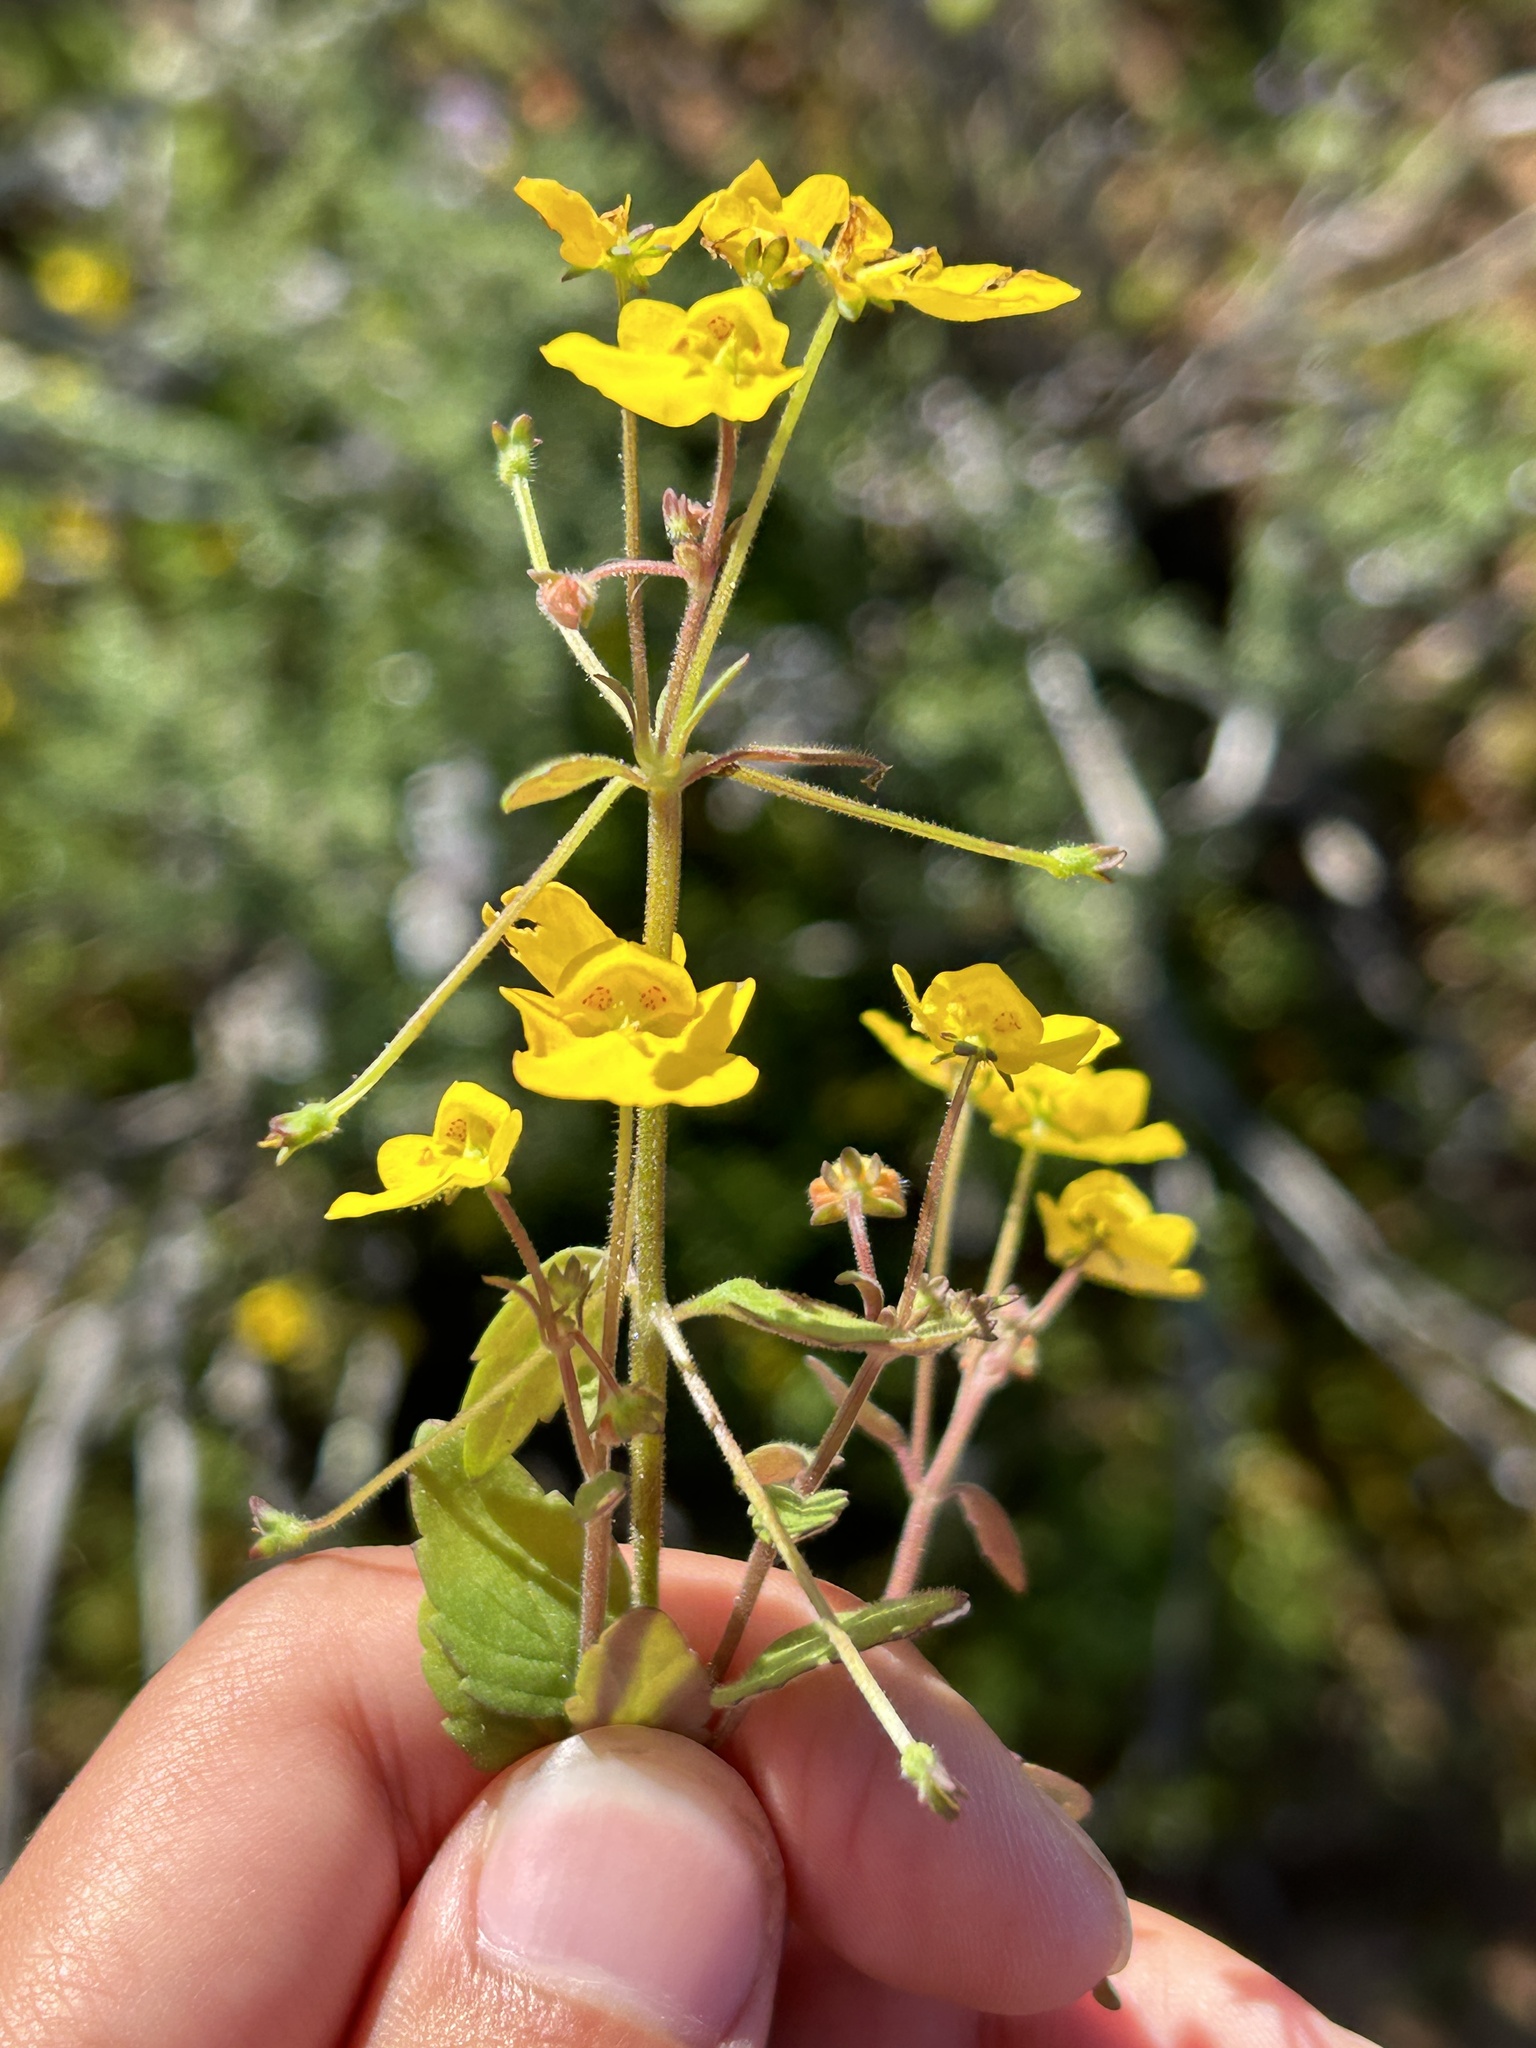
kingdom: Plantae
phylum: Tracheophyta
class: Magnoliopsida
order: Lamiales
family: Scrophulariaceae
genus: Hemimeris
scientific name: Hemimeris racemosa
